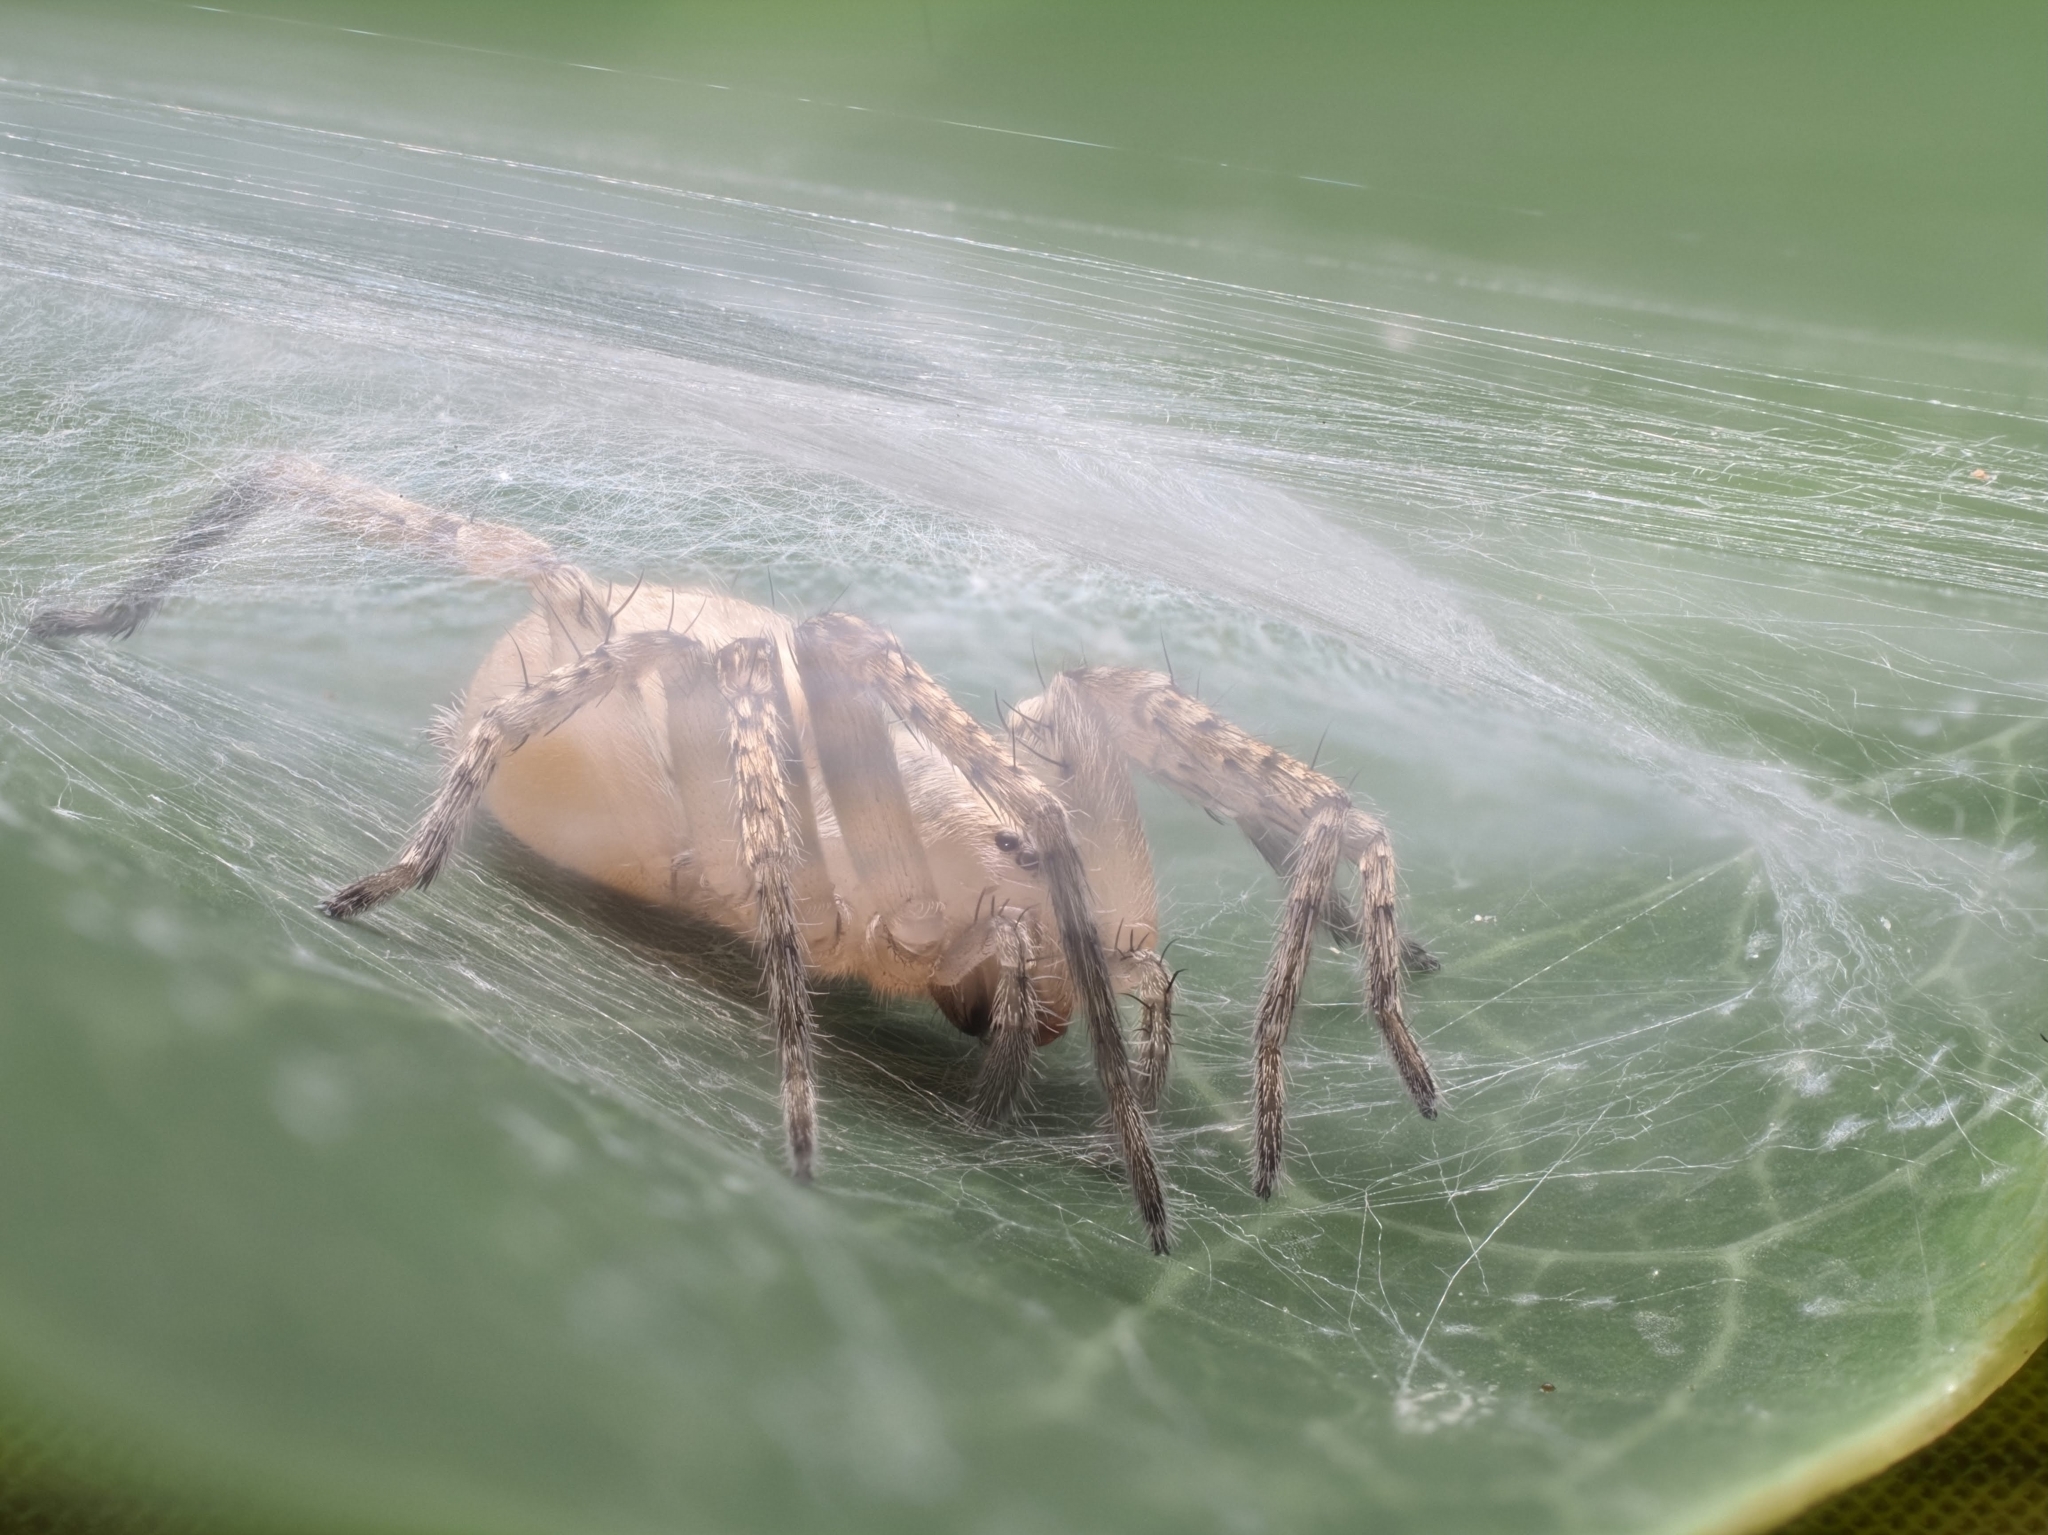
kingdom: Animalia
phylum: Arthropoda
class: Arachnida
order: Araneae
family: Anyphaenidae
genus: Anyphaena
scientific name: Anyphaena accentuata
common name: Buzzing spider
